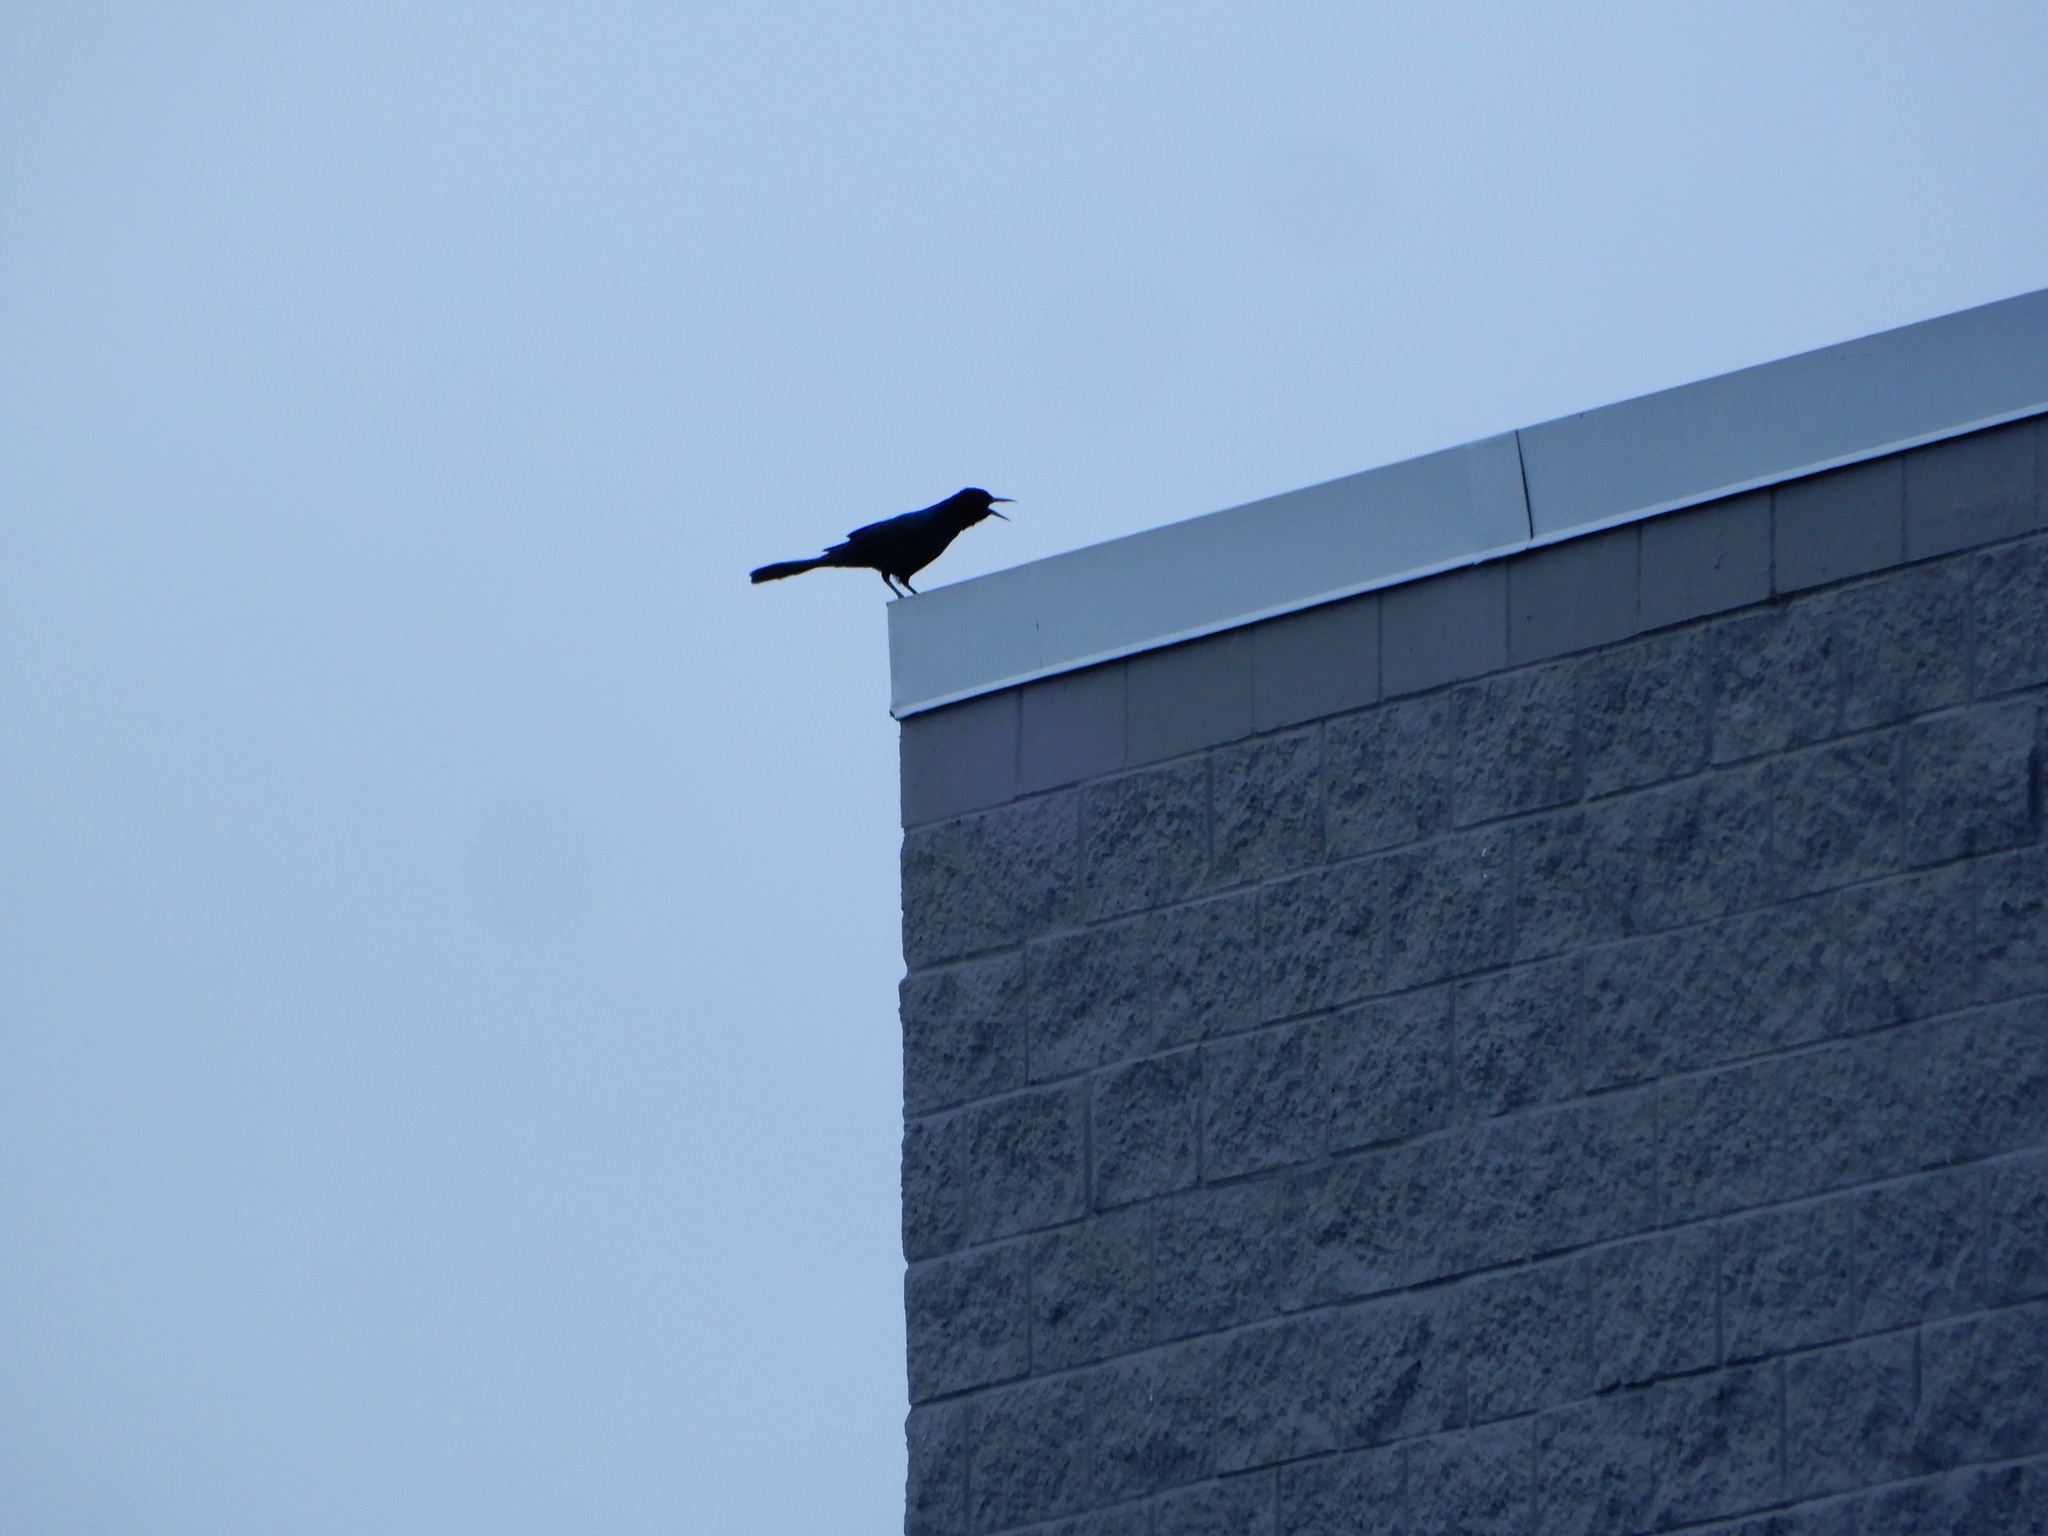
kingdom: Animalia
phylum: Chordata
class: Aves
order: Passeriformes
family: Icteridae
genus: Quiscalus
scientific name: Quiscalus major
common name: Boat-tailed grackle
